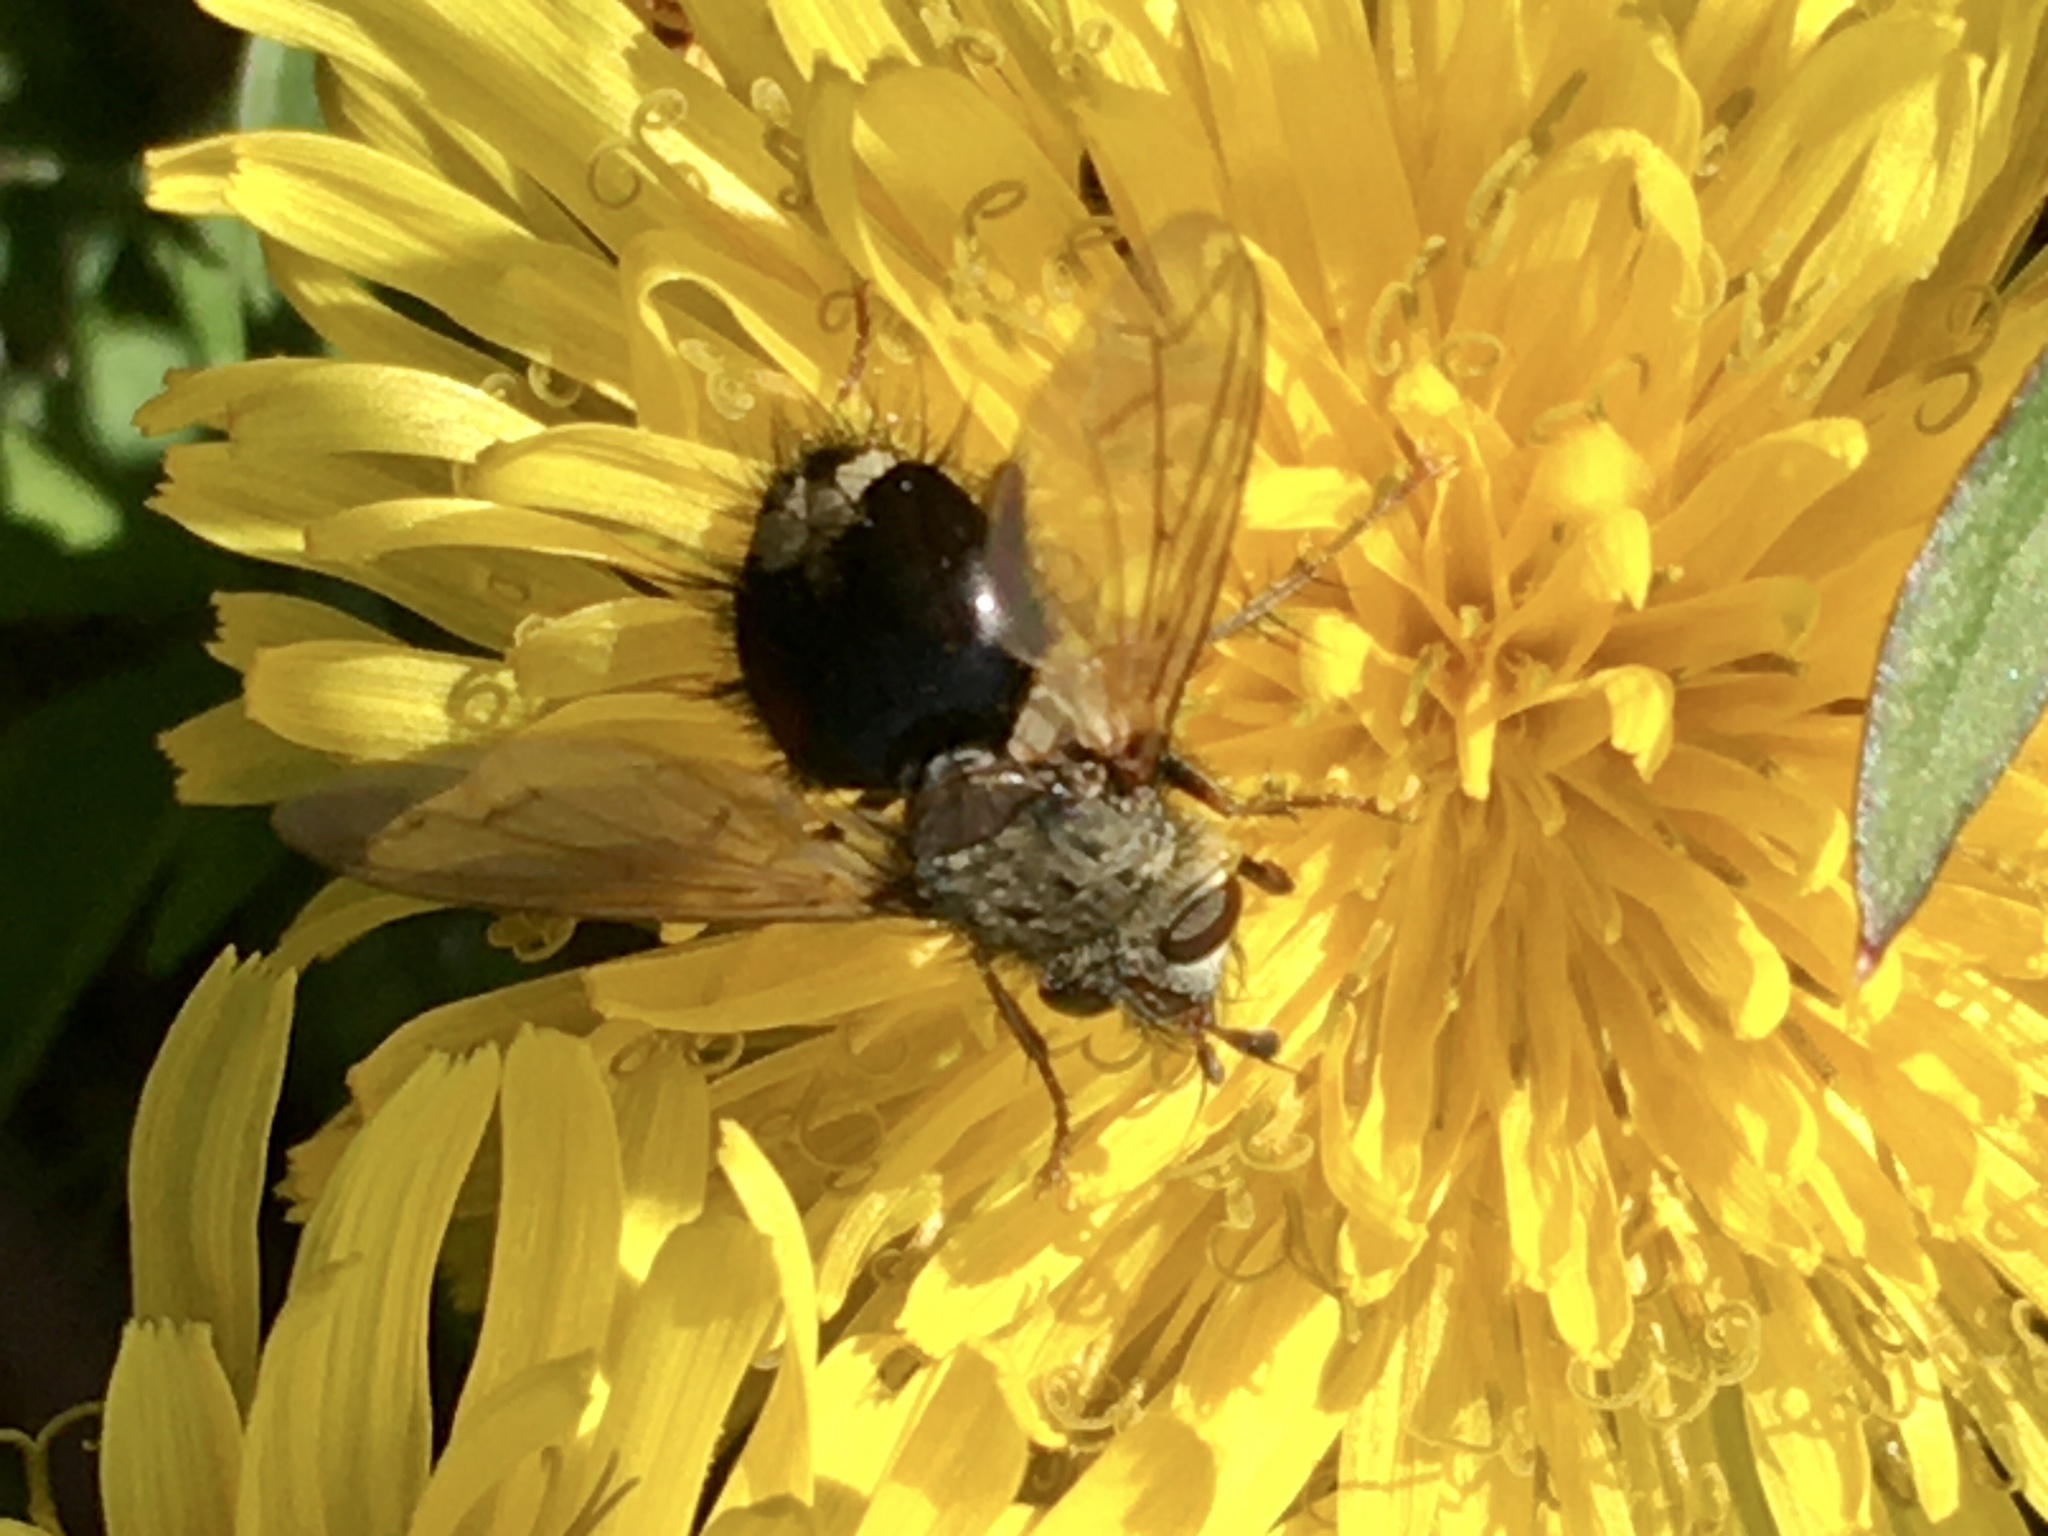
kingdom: Animalia
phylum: Arthropoda
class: Insecta
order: Diptera
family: Tachinidae
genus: Epalpus
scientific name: Epalpus signifer
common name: Early tachinid fly
